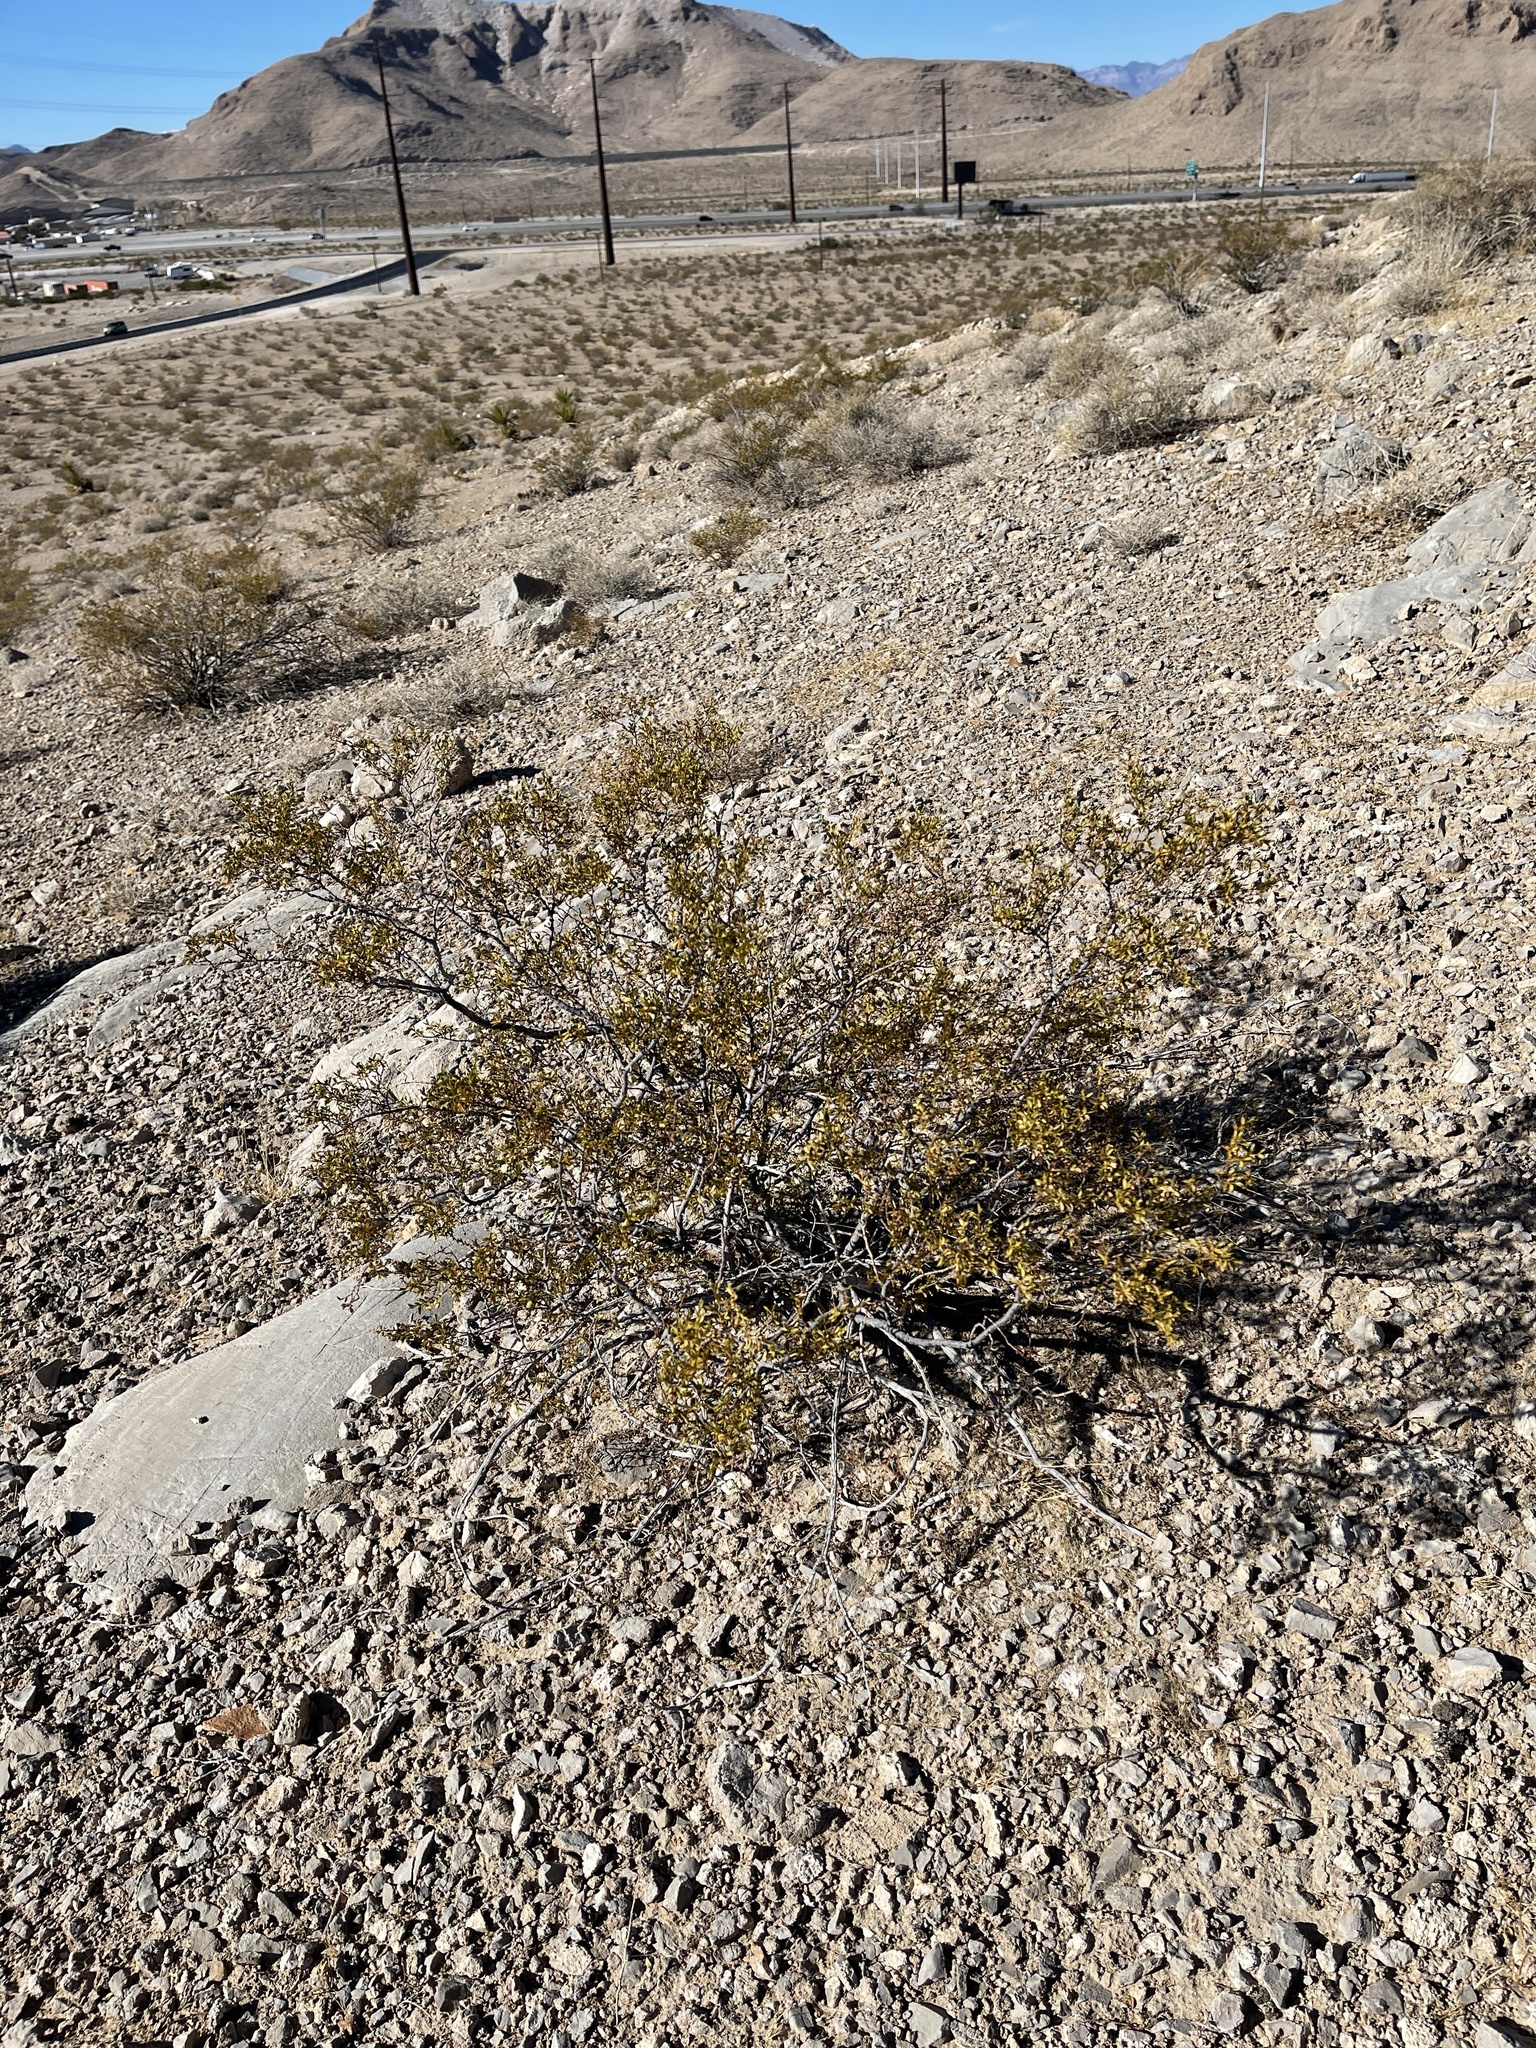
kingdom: Plantae
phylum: Tracheophyta
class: Magnoliopsida
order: Zygophyllales
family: Zygophyllaceae
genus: Larrea
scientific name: Larrea tridentata
